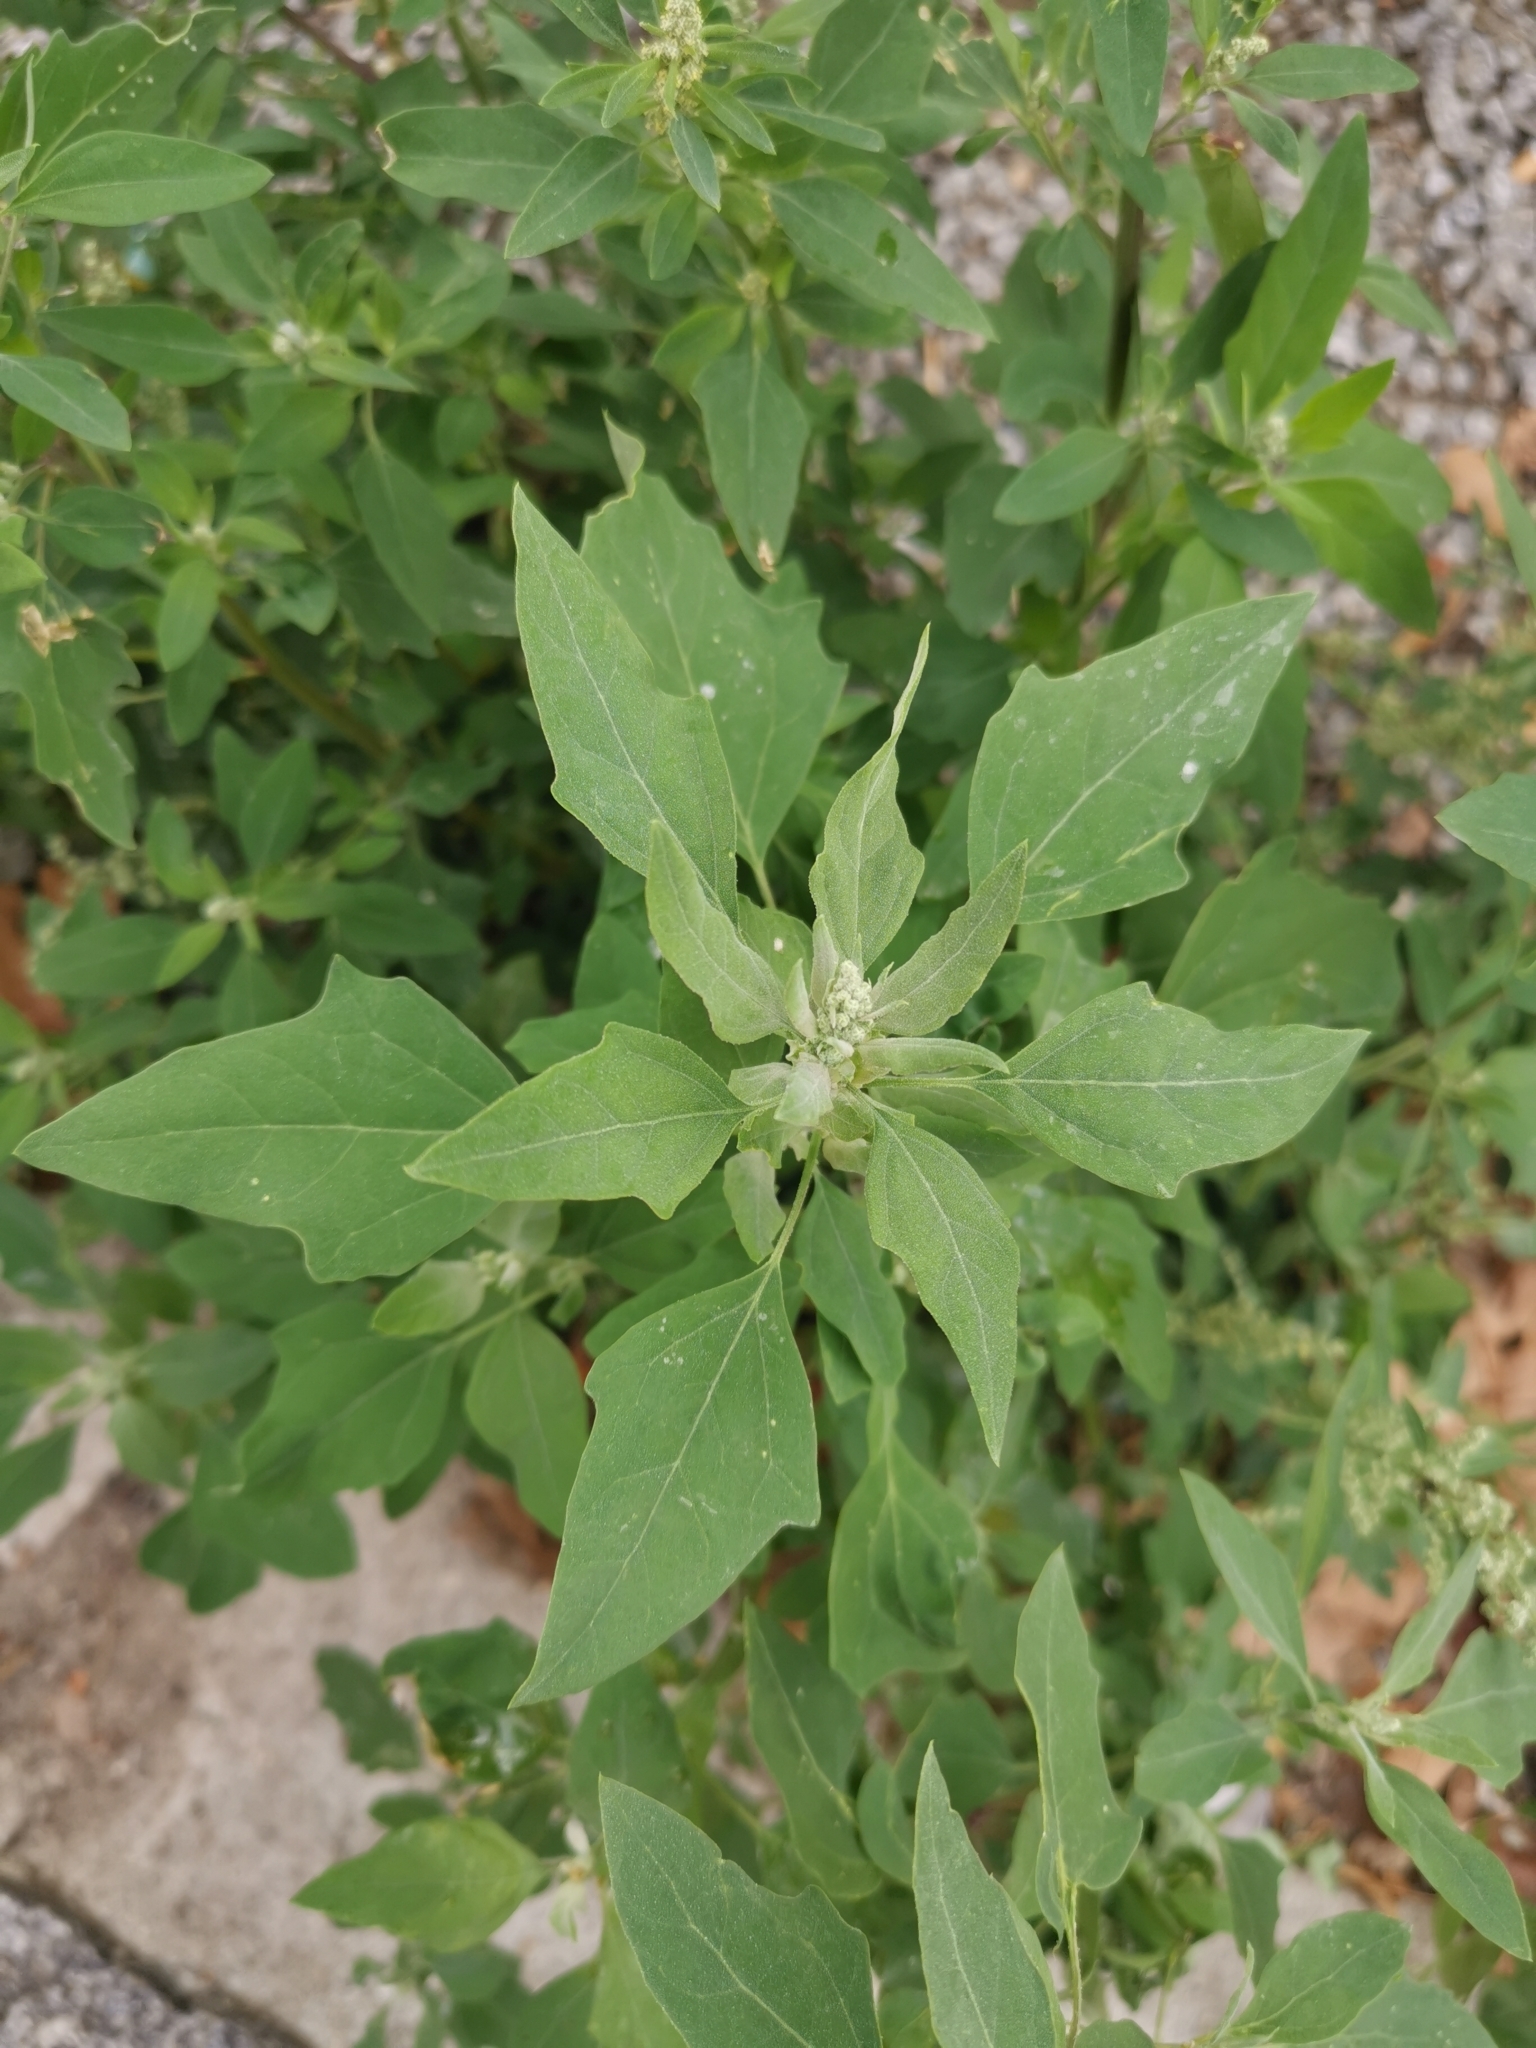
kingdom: Plantae
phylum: Tracheophyta
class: Magnoliopsida
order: Caryophyllales
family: Amaranthaceae
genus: Chenopodium
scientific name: Chenopodium album
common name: Fat-hen
